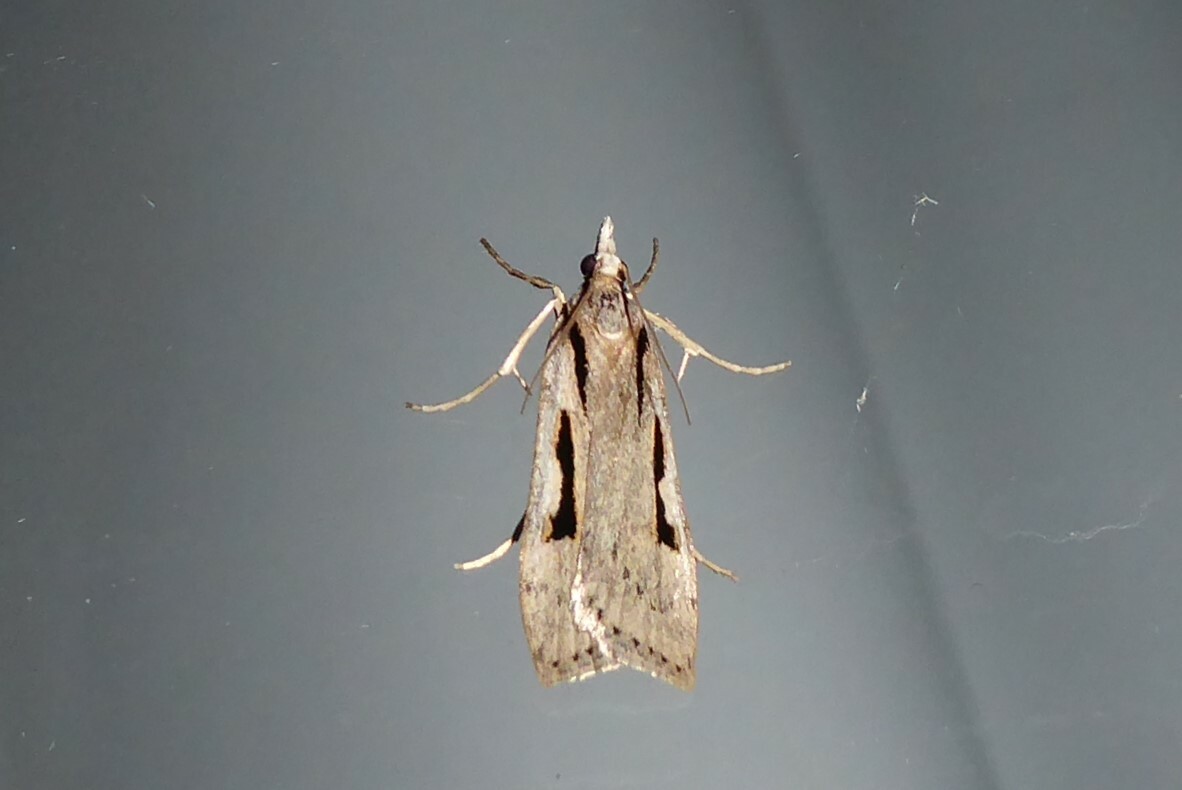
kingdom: Animalia
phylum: Arthropoda
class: Insecta
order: Lepidoptera
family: Crambidae
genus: Scoparia
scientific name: Scoparia rotuellus
